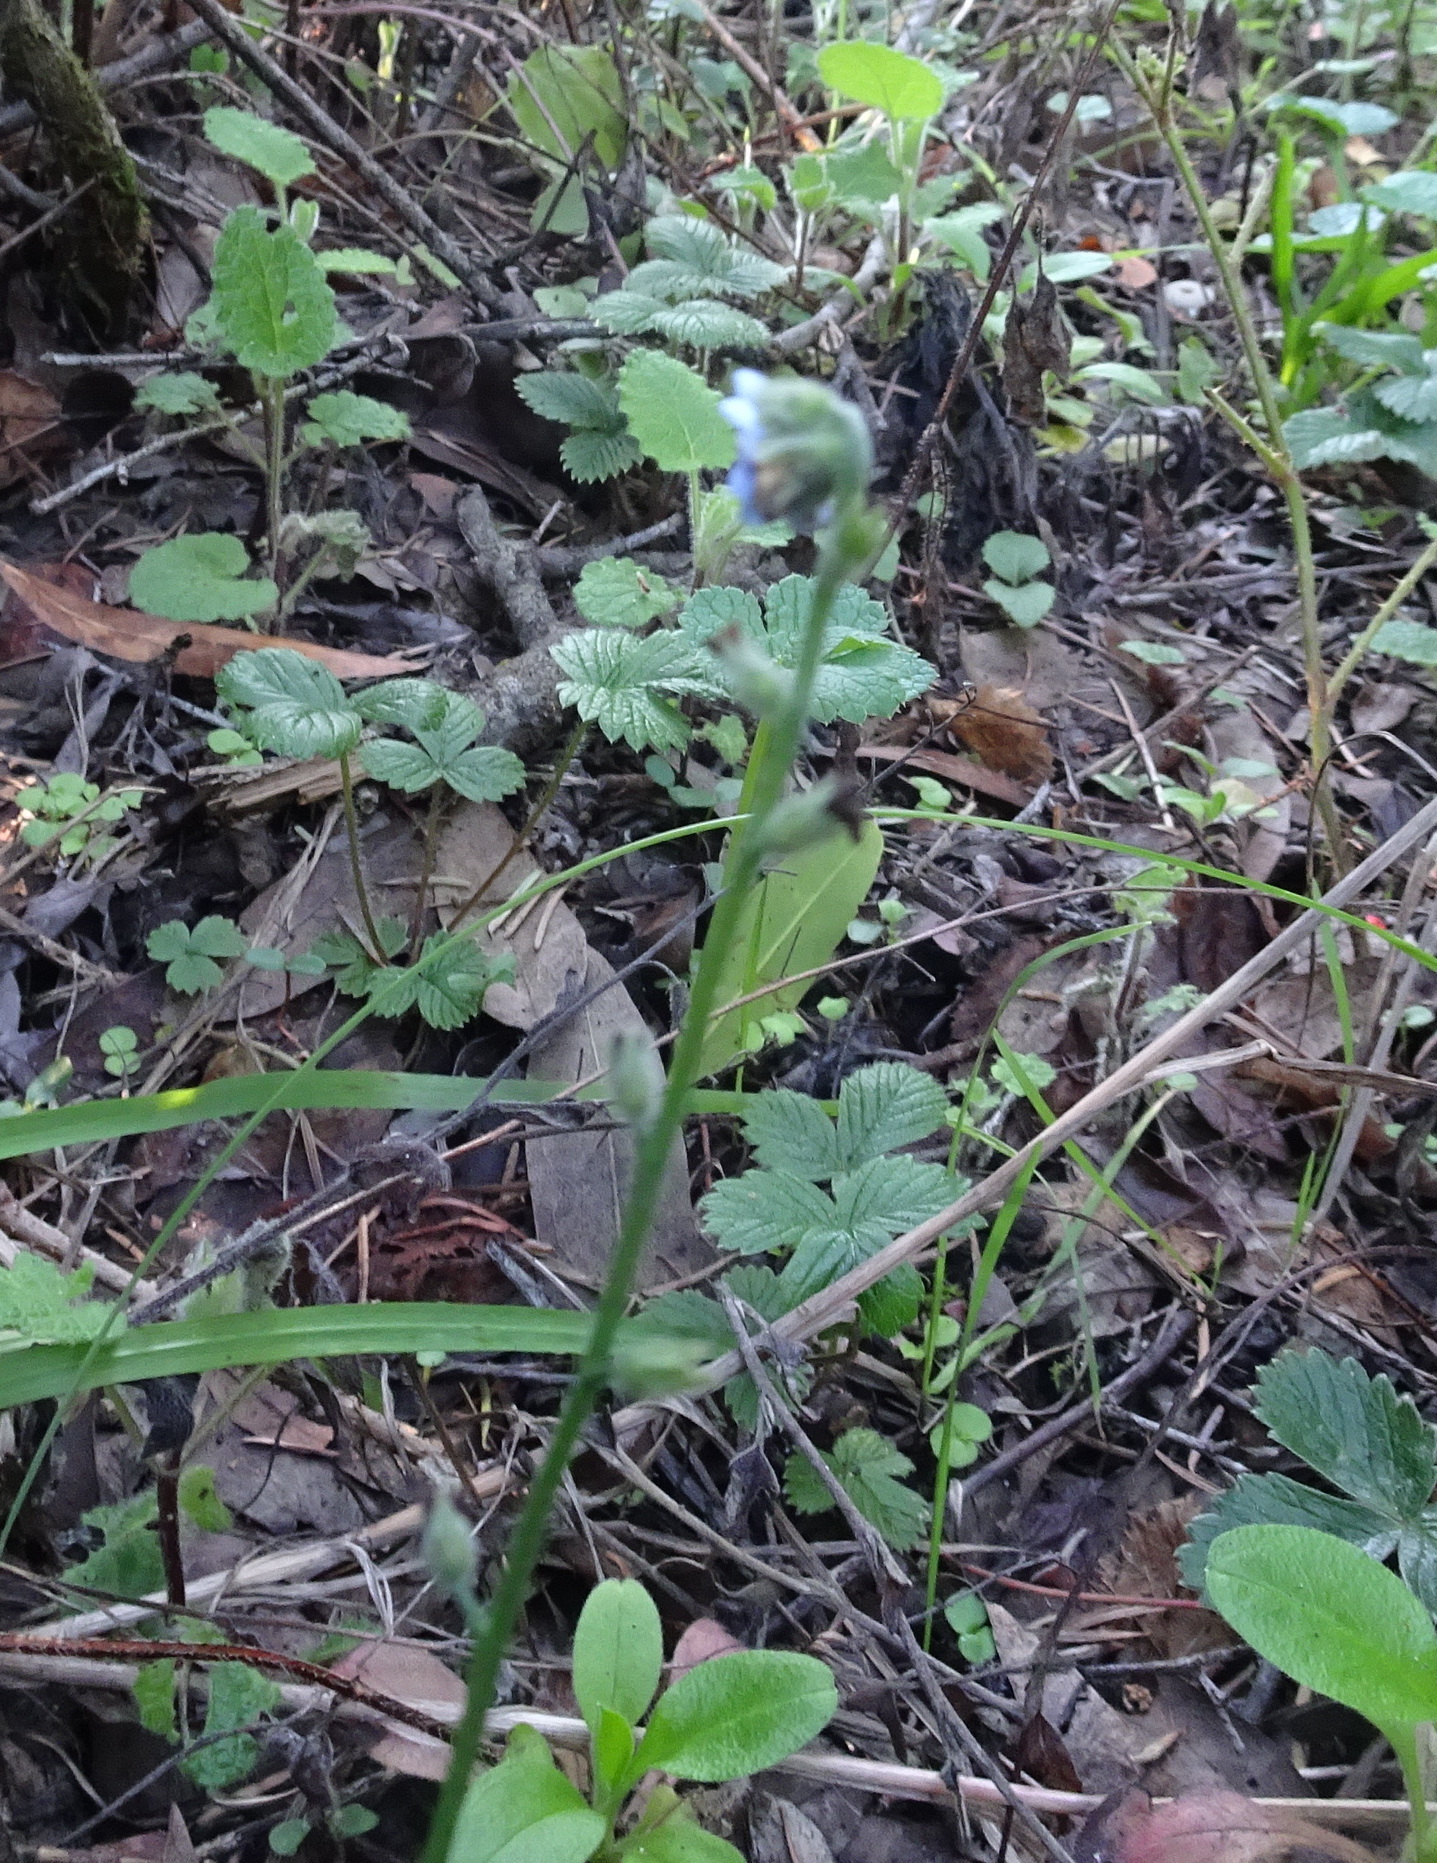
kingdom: Plantae
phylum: Tracheophyta
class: Magnoliopsida
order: Boraginales
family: Boraginaceae
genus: Myosotis
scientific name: Myosotis latifolia
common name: Broadleaf forget-me-not
